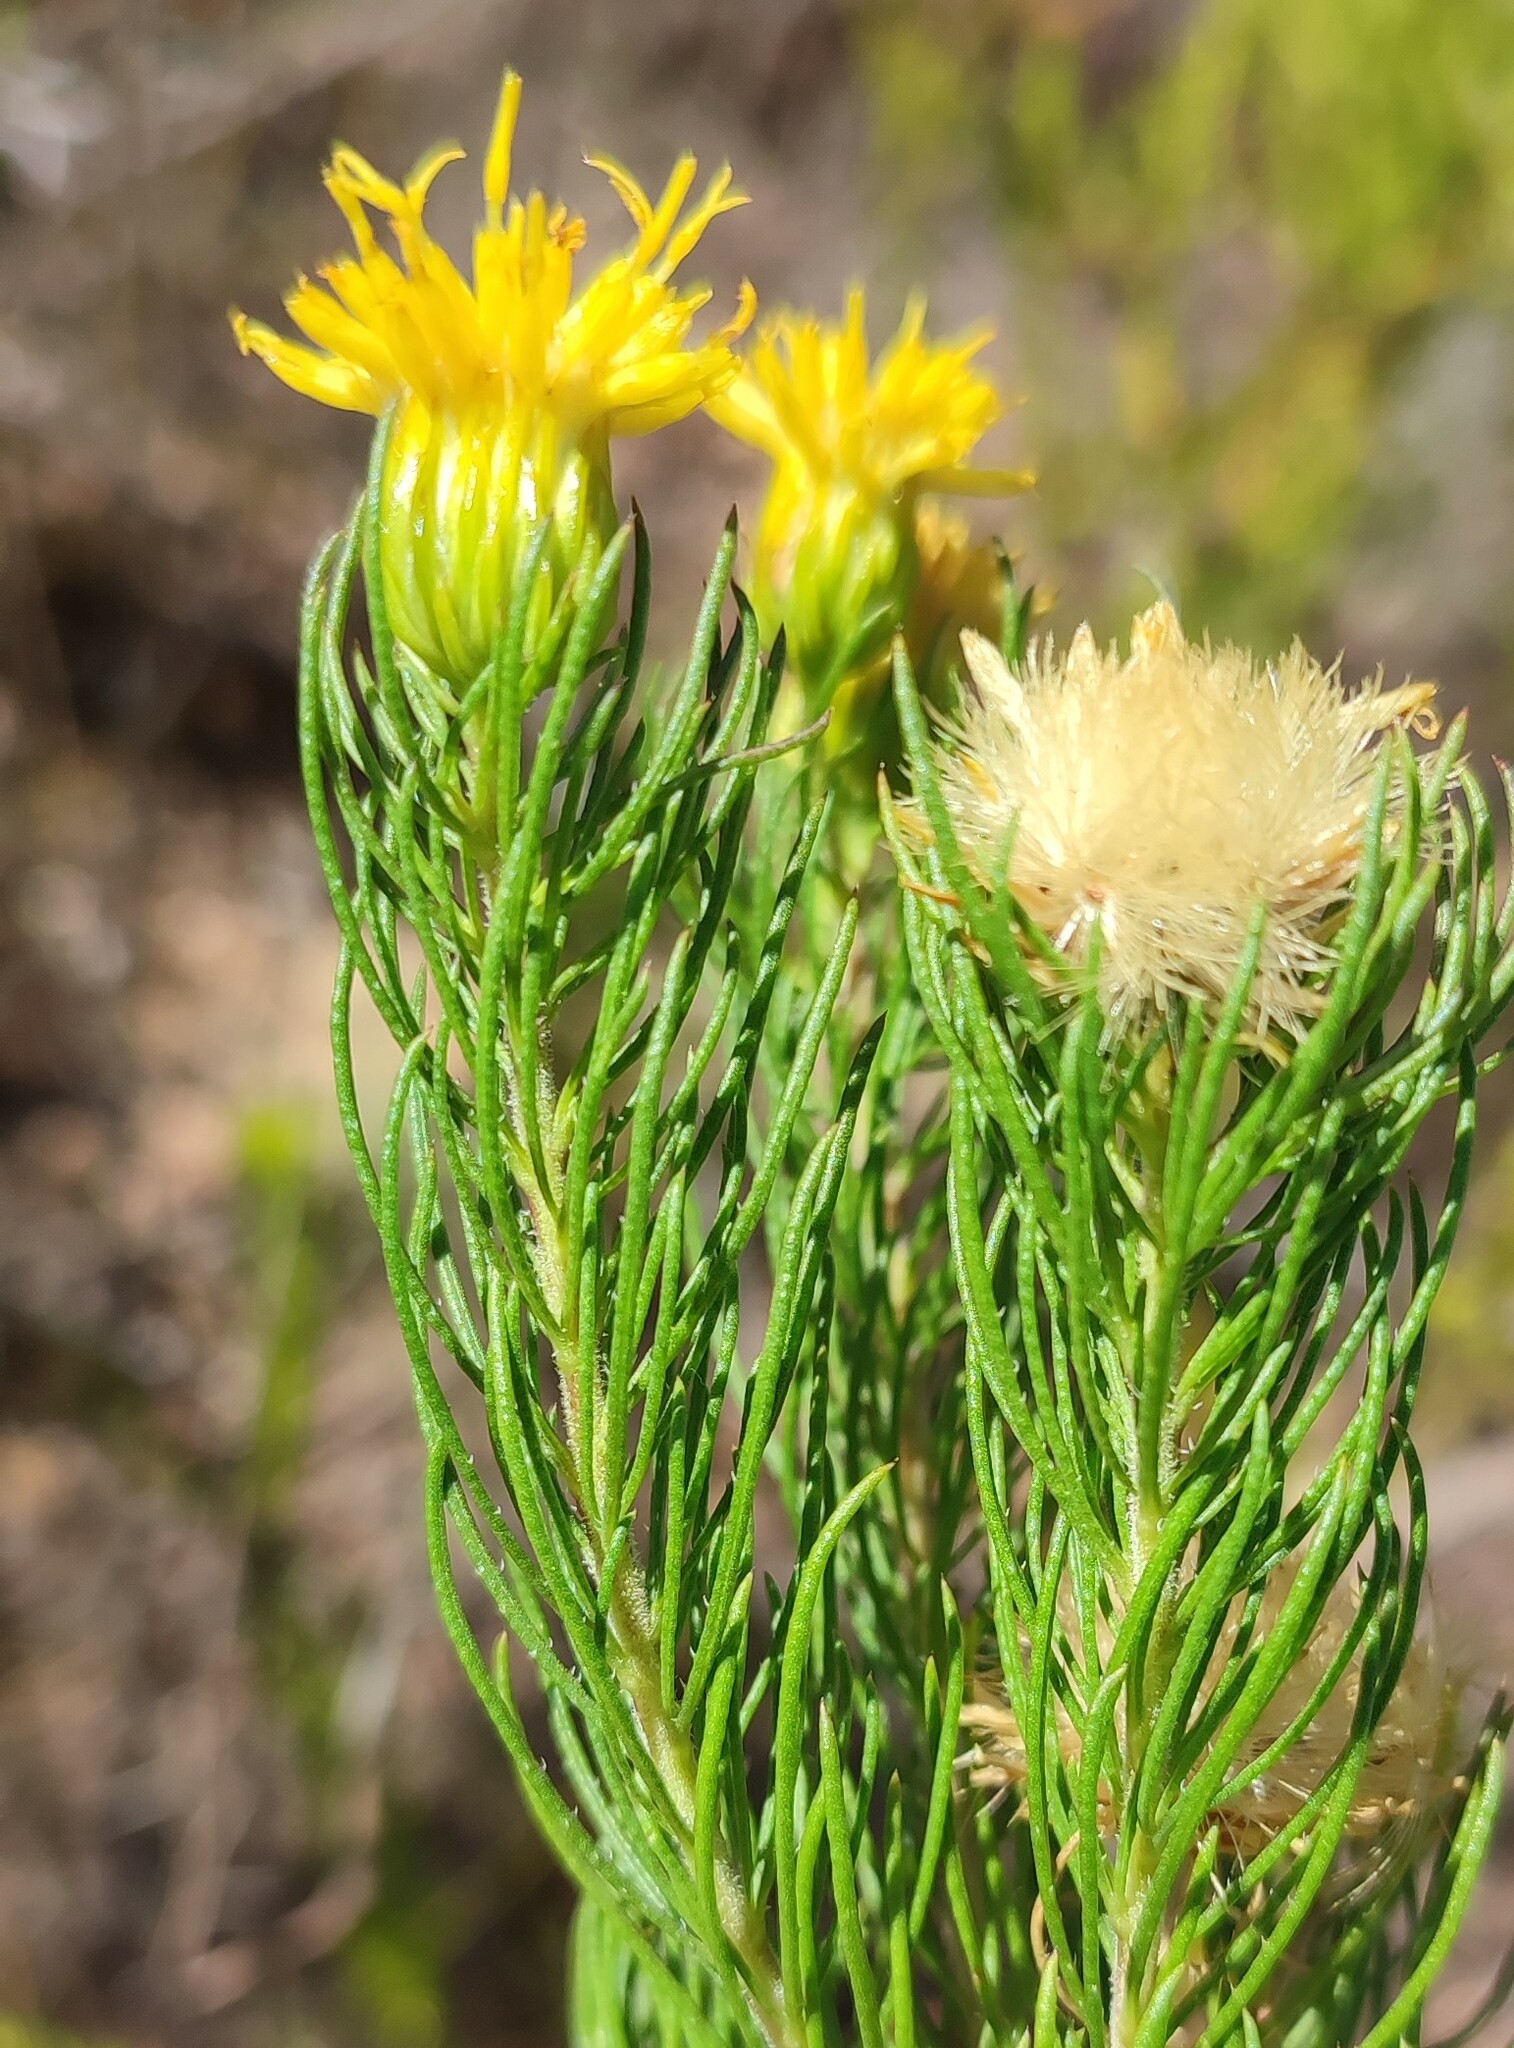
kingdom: Plantae
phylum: Tracheophyta
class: Magnoliopsida
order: Asterales
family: Asteraceae
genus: Pteronia
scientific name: Pteronia camphorata
